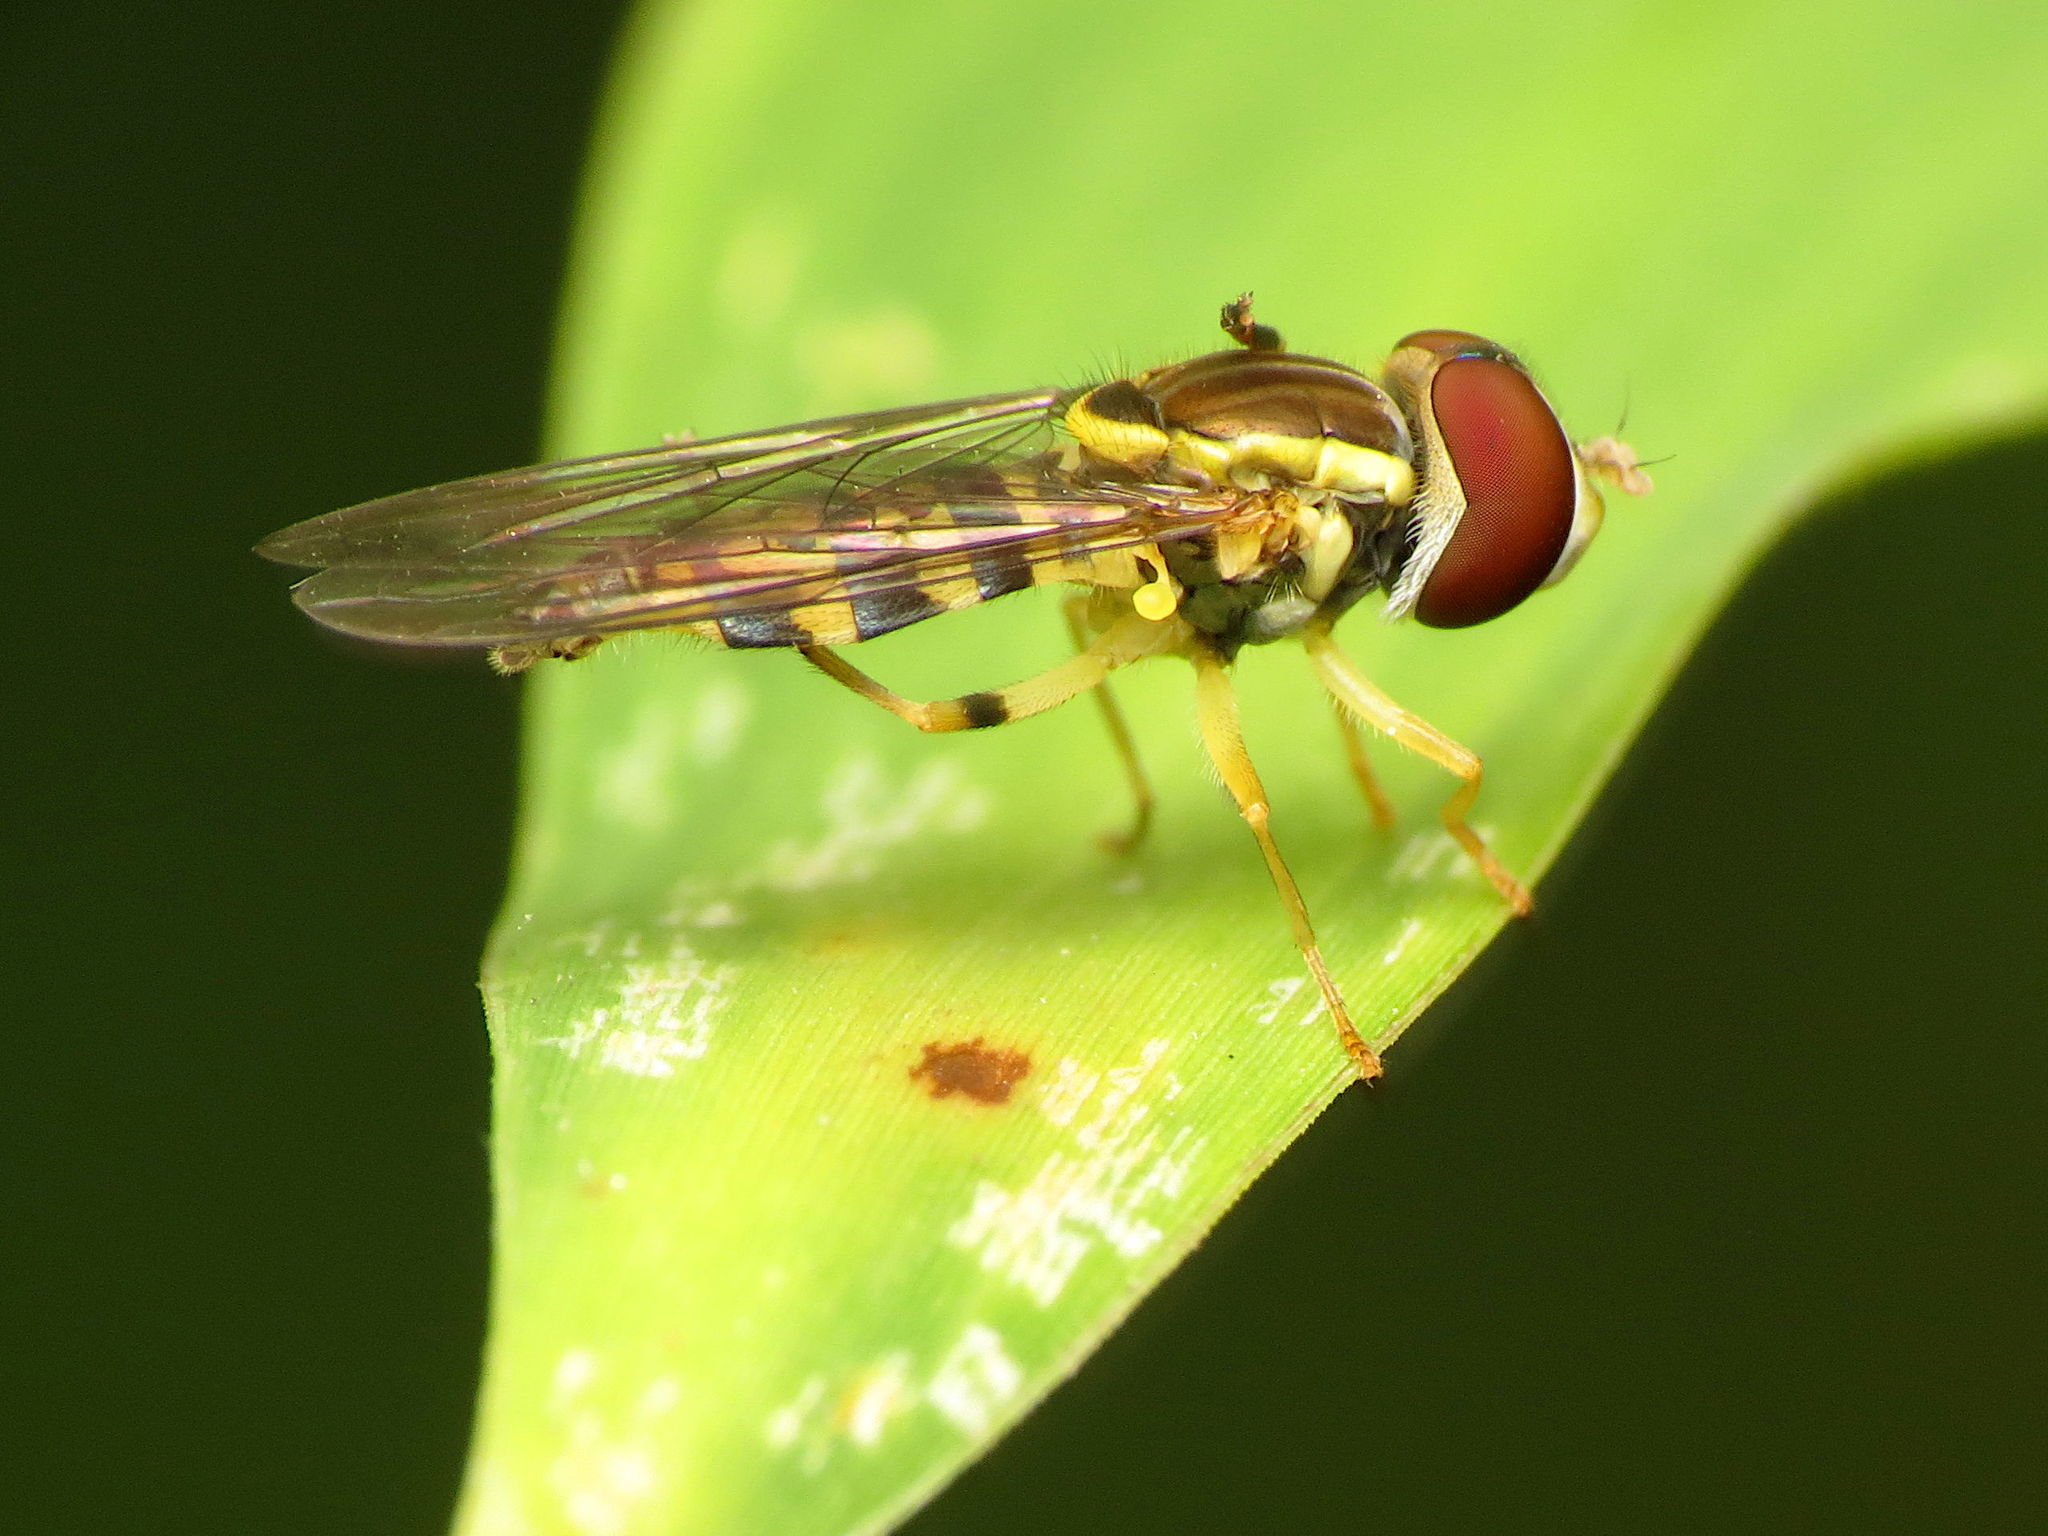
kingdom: Animalia
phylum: Arthropoda
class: Insecta
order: Diptera
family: Syrphidae
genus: Toxomerus
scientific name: Toxomerus geminatus
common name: Eastern calligrapher
